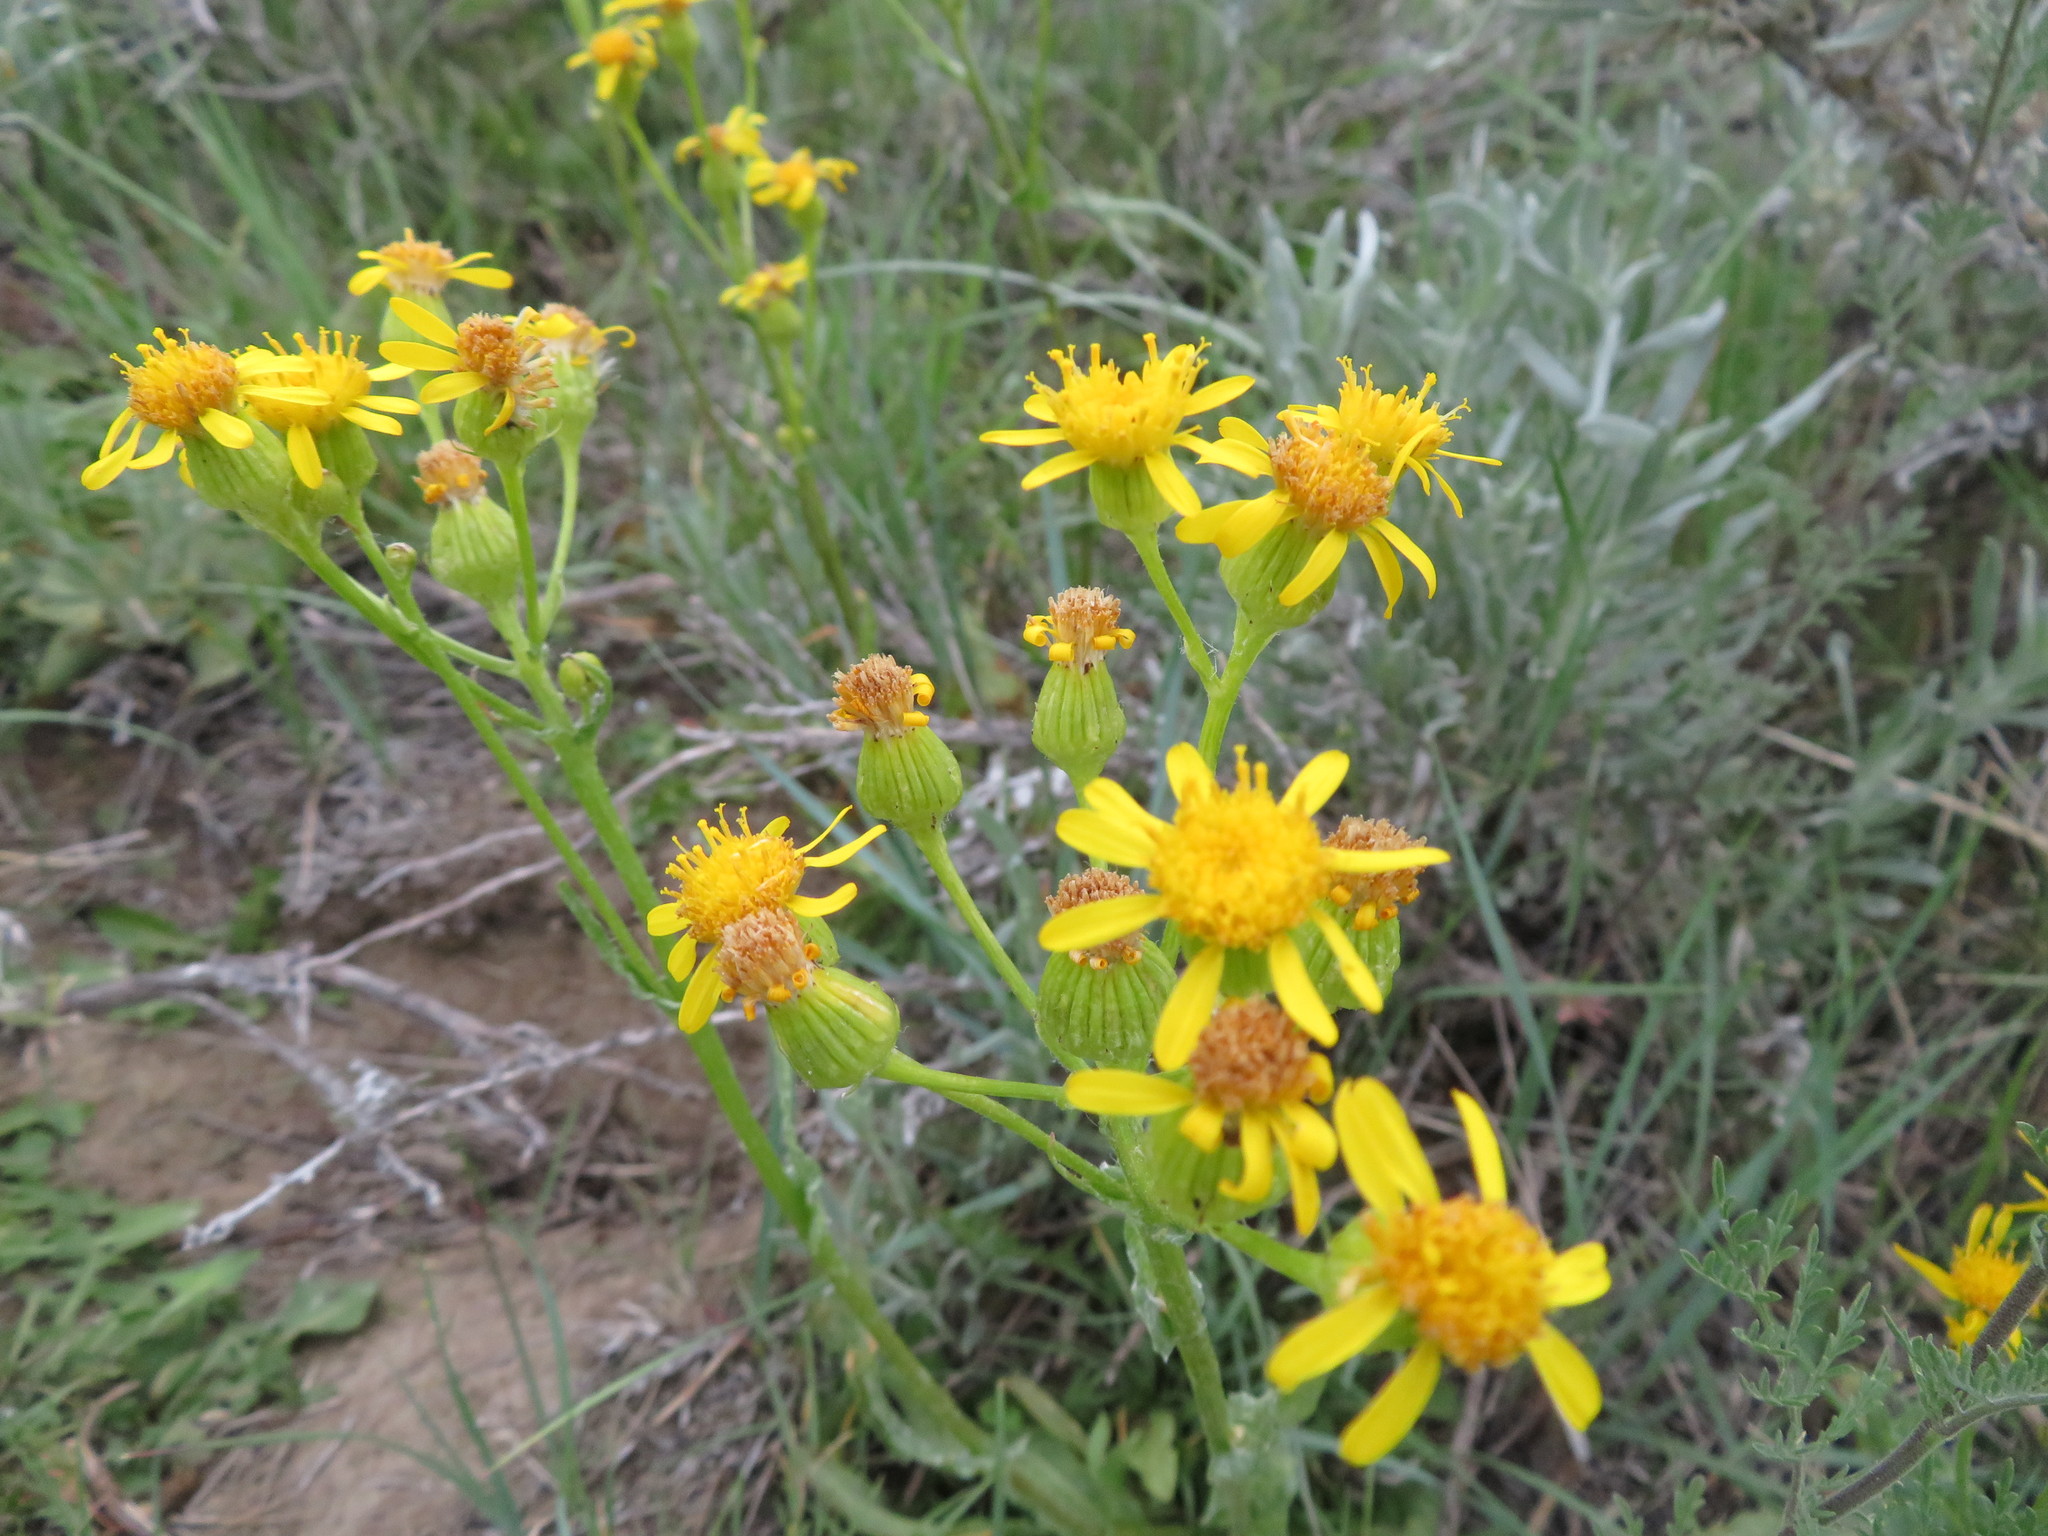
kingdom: Plantae
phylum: Tracheophyta
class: Magnoliopsida
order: Asterales
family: Asteraceae
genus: Senecio
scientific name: Senecio integerrimus
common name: Gaugeplant
